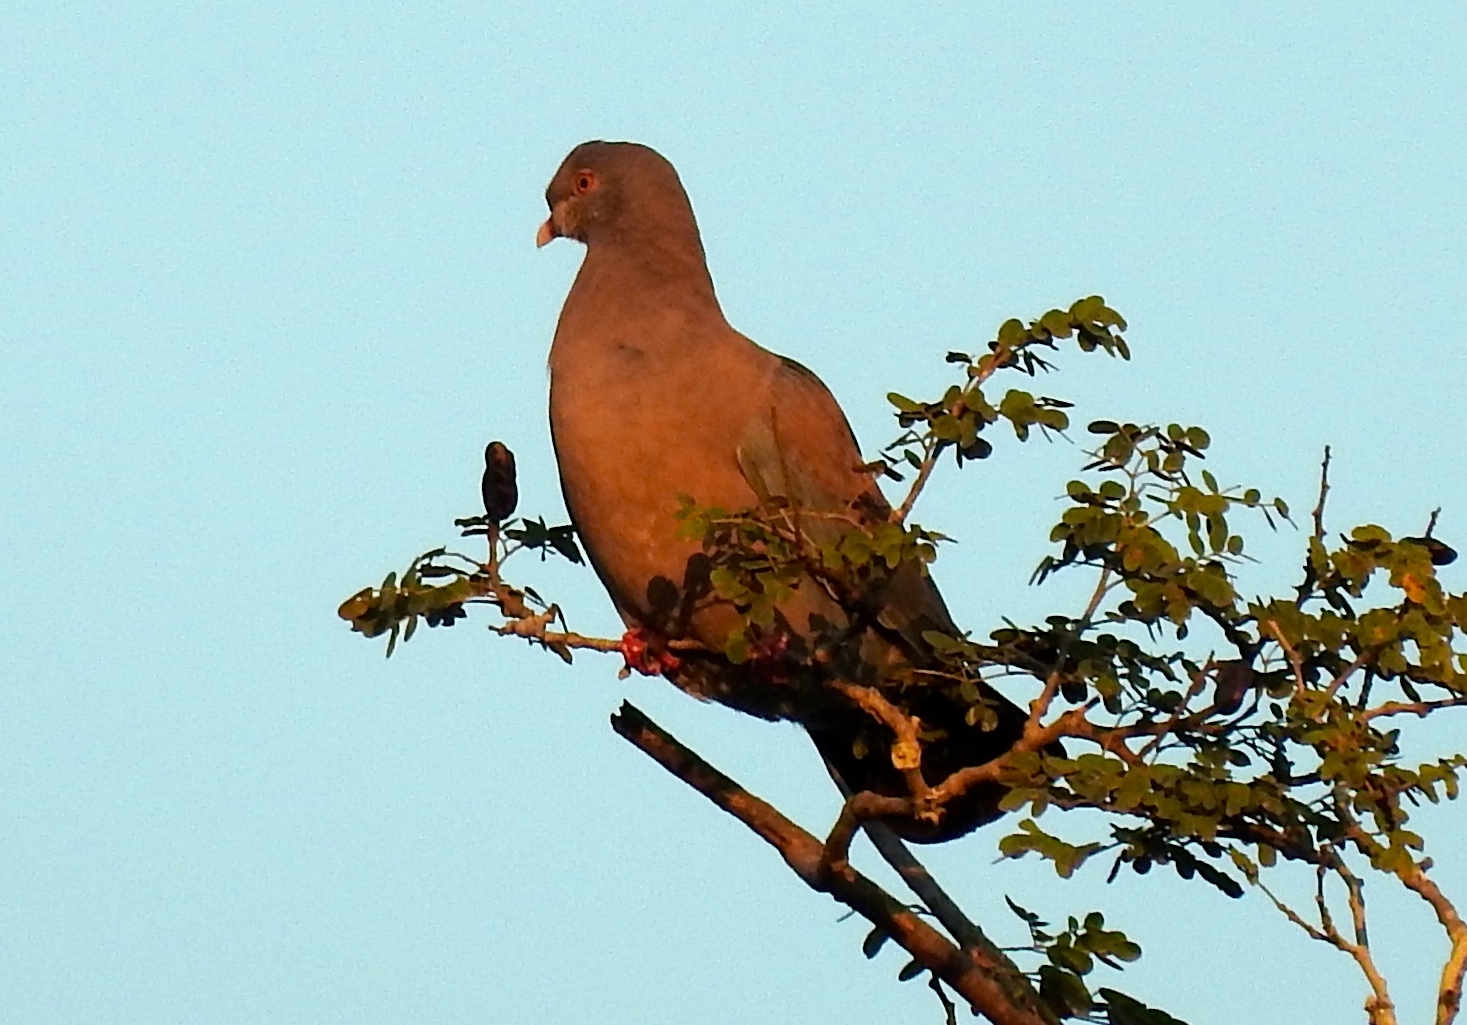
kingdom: Animalia
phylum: Chordata
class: Aves
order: Columbiformes
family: Columbidae
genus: Patagioenas
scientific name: Patagioenas flavirostris
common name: Red-billed pigeon
